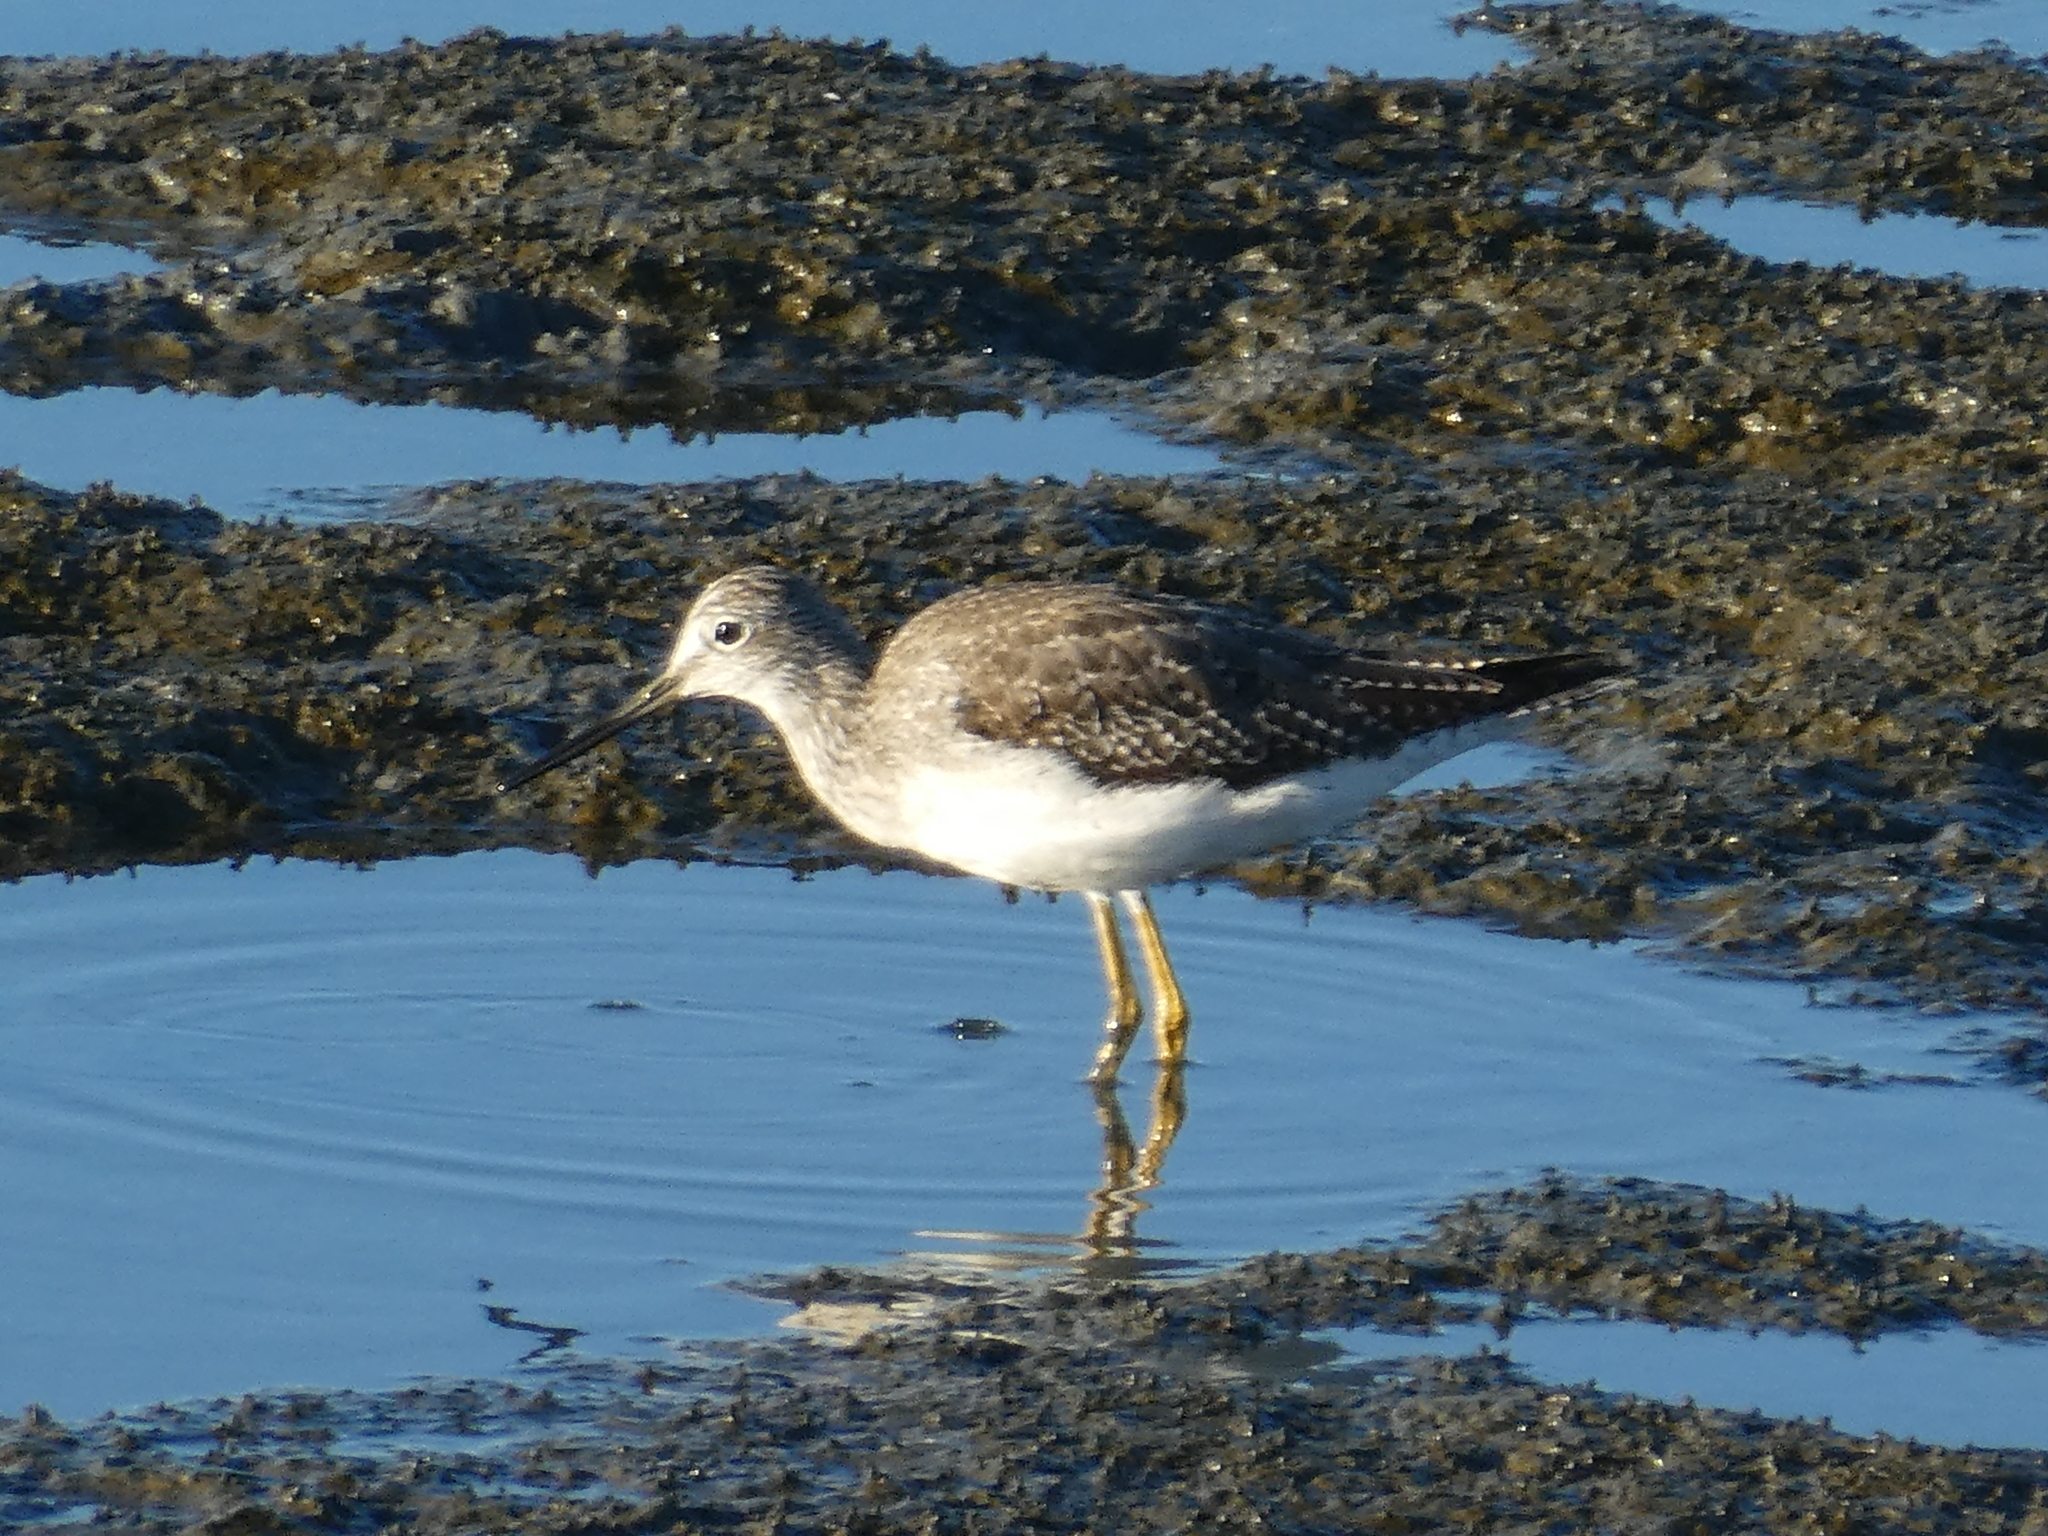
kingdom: Animalia
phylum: Chordata
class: Aves
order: Charadriiformes
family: Scolopacidae
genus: Tringa
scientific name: Tringa melanoleuca
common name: Greater yellowlegs
